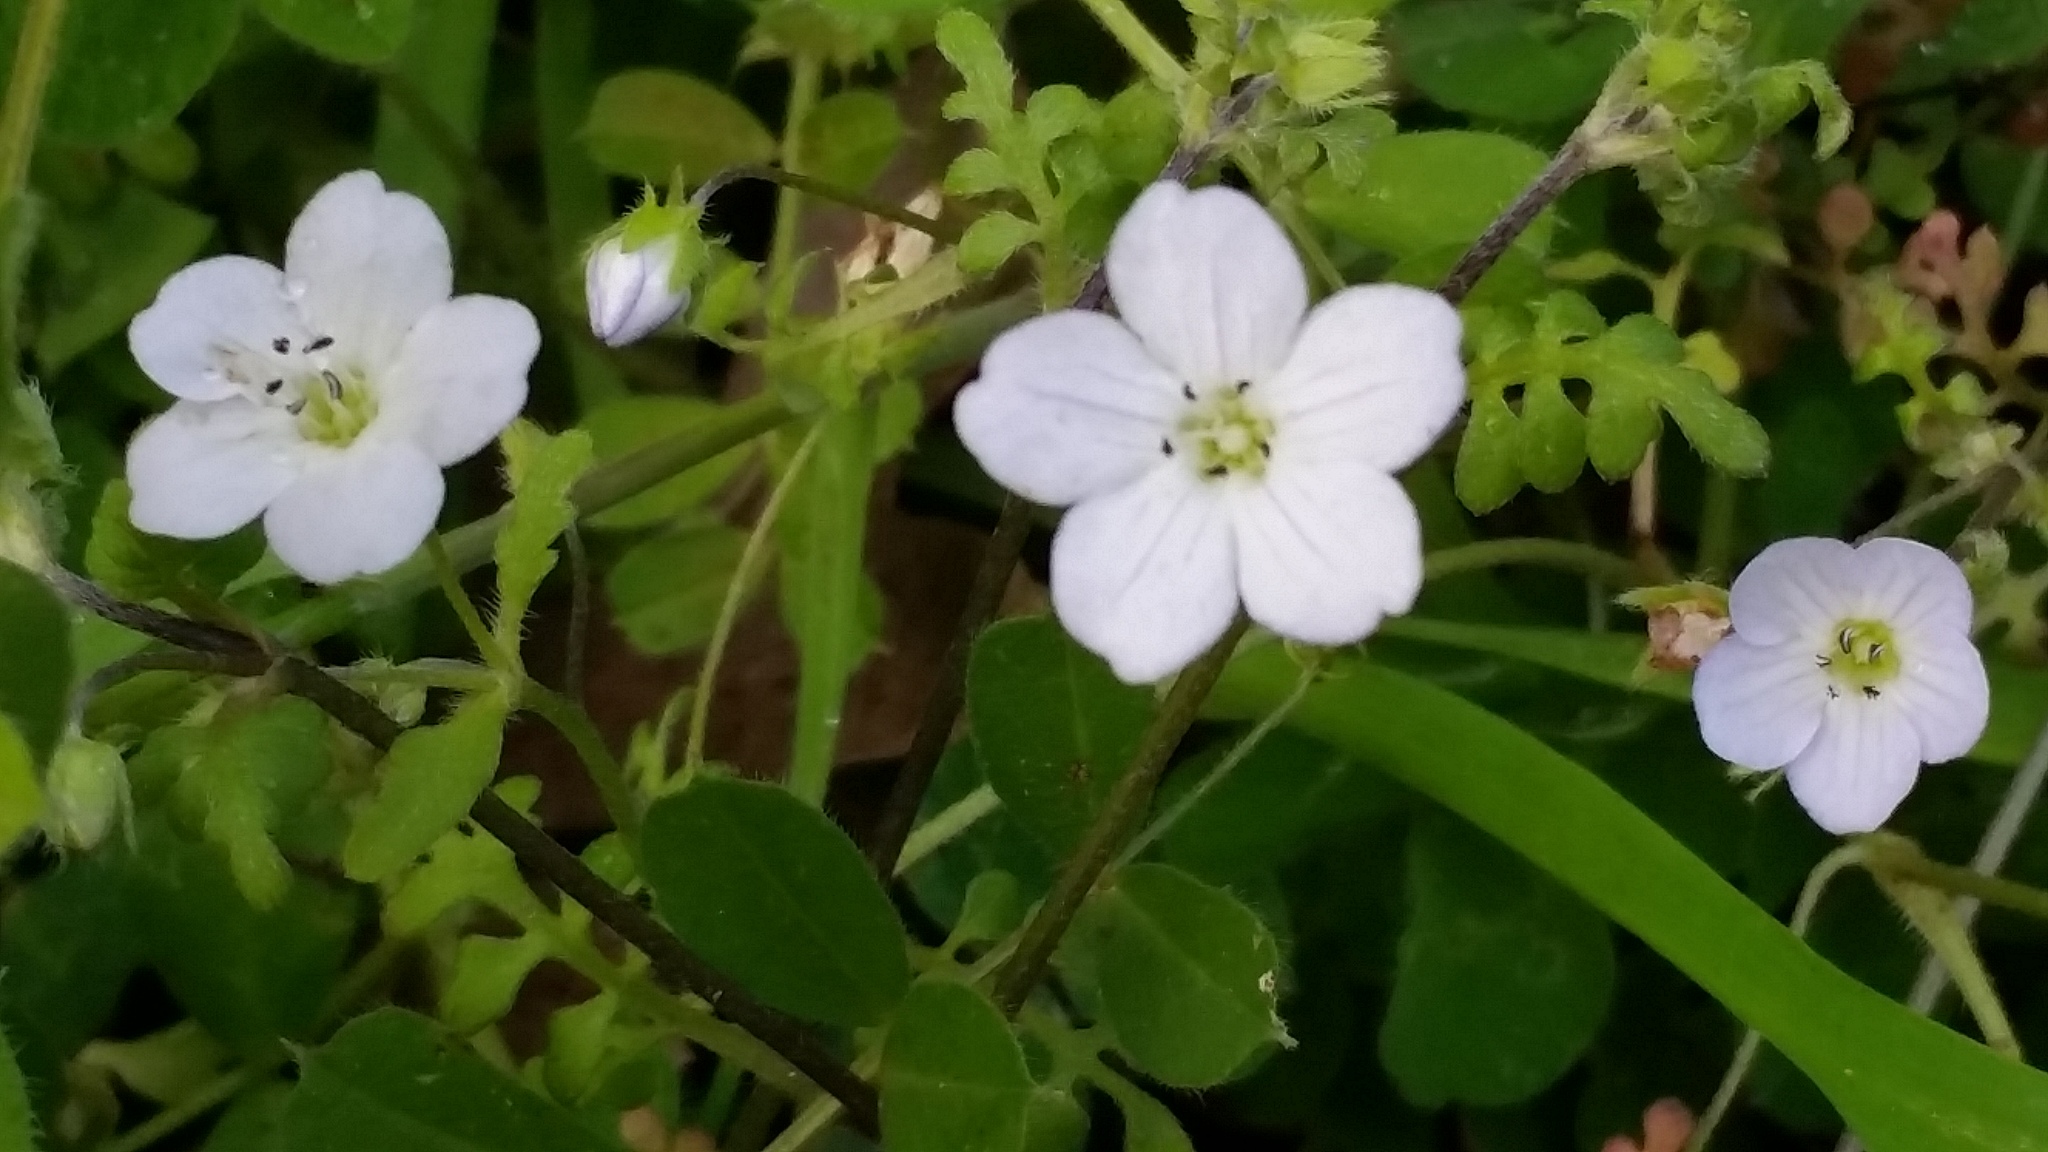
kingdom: Plantae
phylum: Tracheophyta
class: Magnoliopsida
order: Boraginales
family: Hydrophyllaceae
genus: Nemophila
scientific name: Nemophila heterophylla
